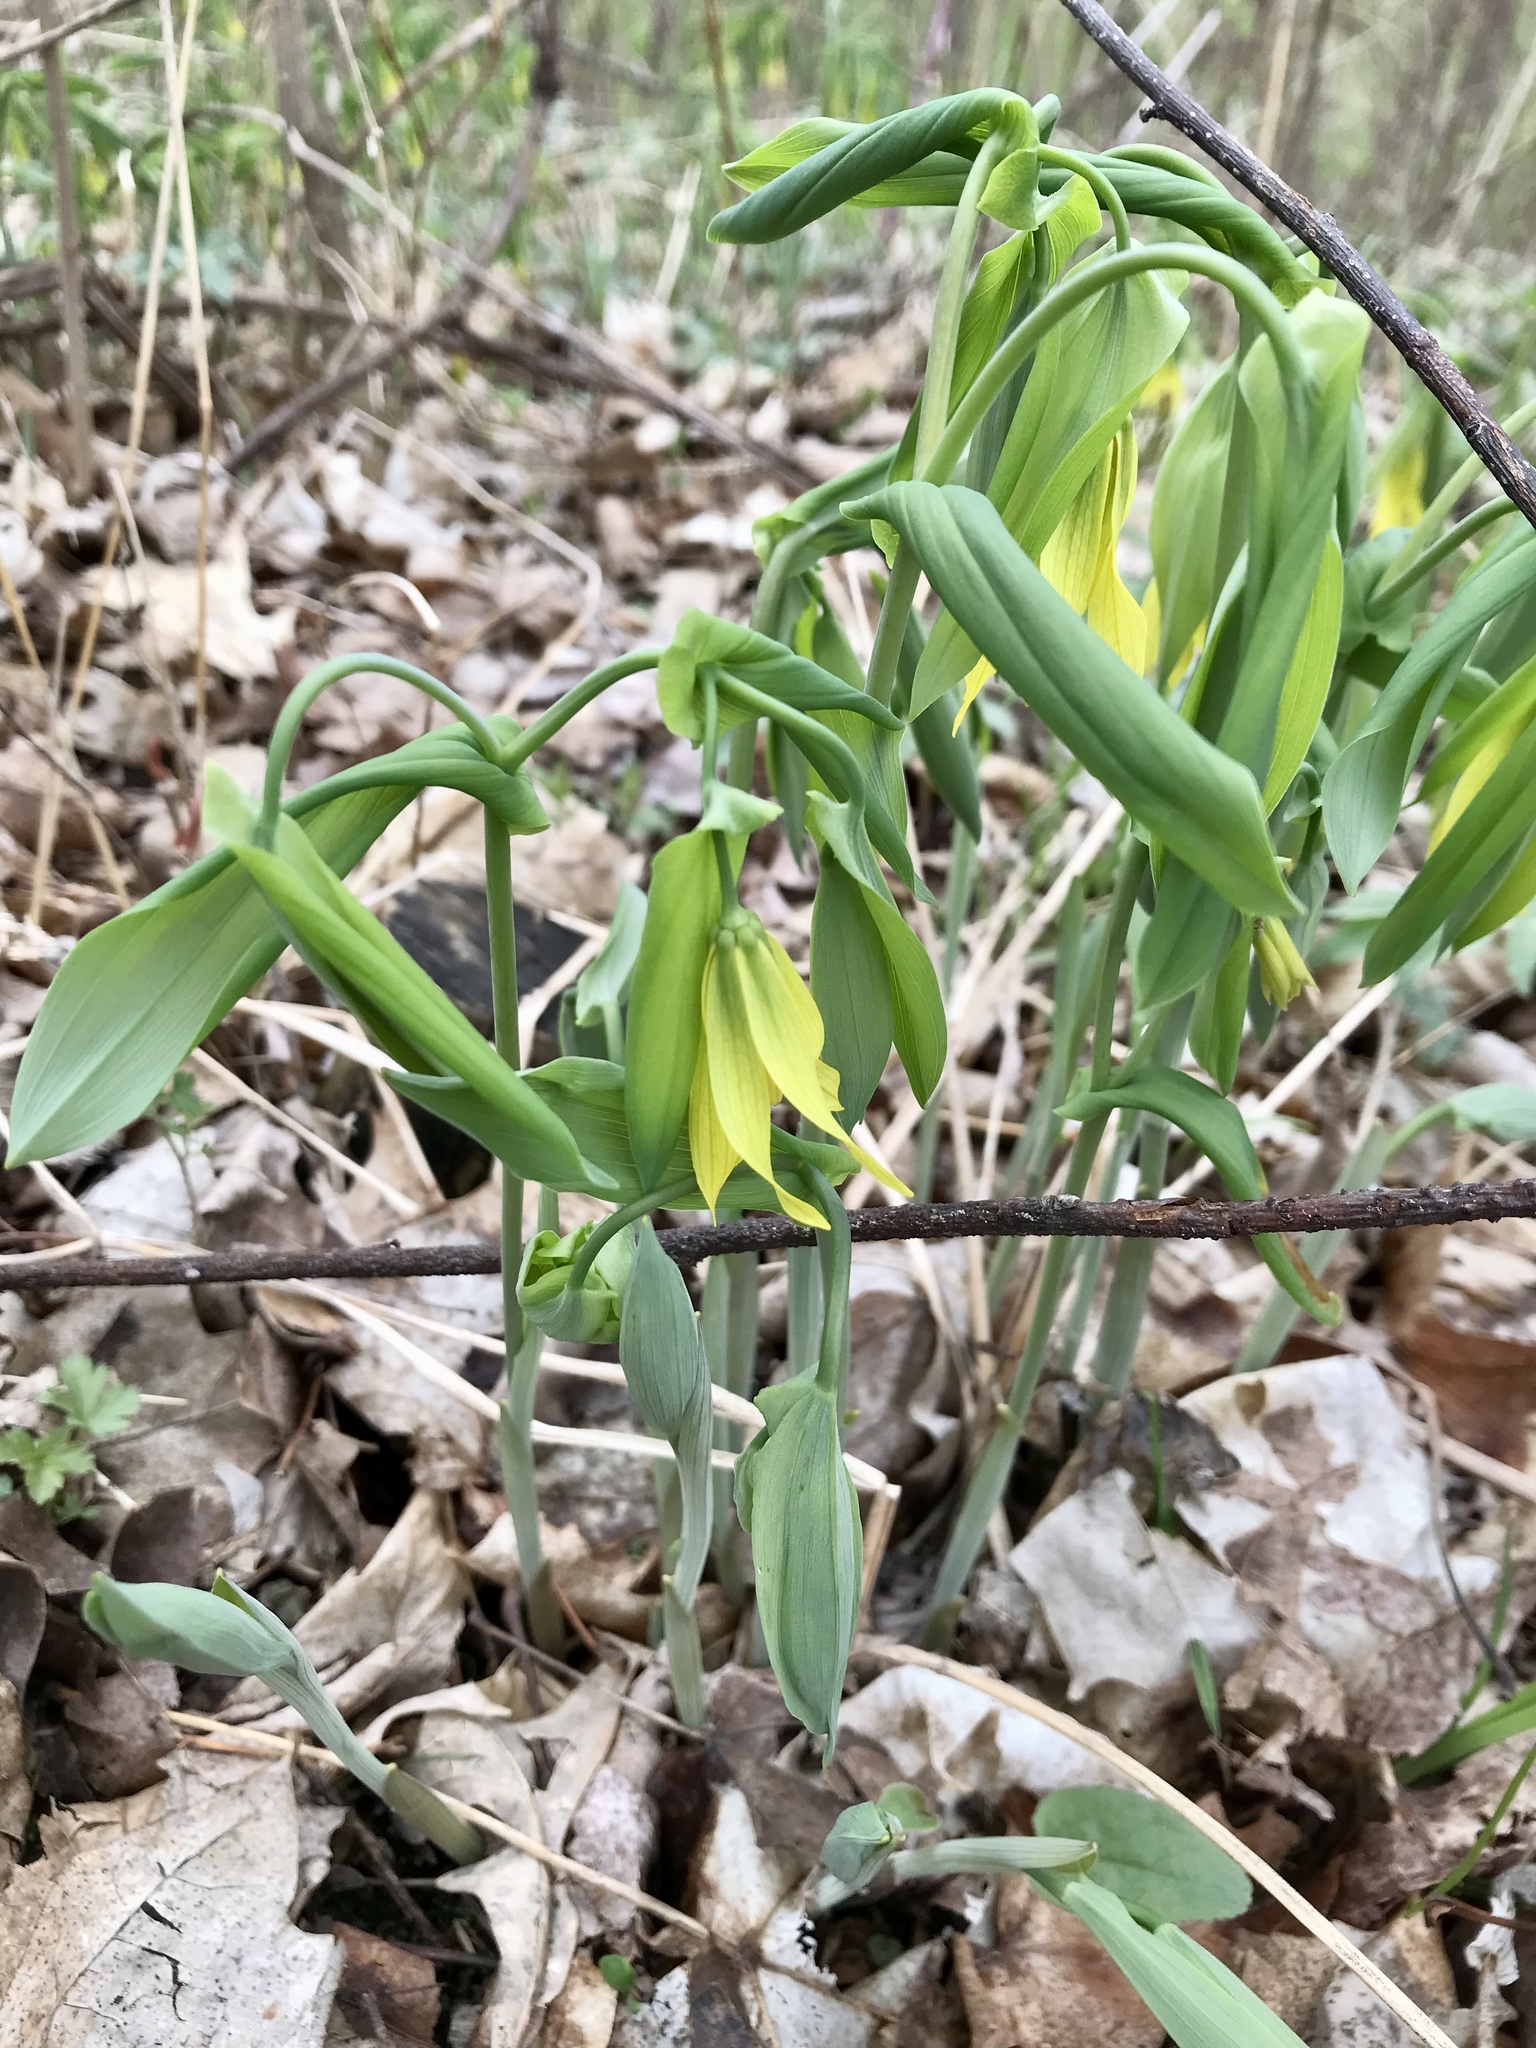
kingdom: Plantae
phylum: Tracheophyta
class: Liliopsida
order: Liliales
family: Colchicaceae
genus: Uvularia
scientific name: Uvularia grandiflora
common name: Bellwort
